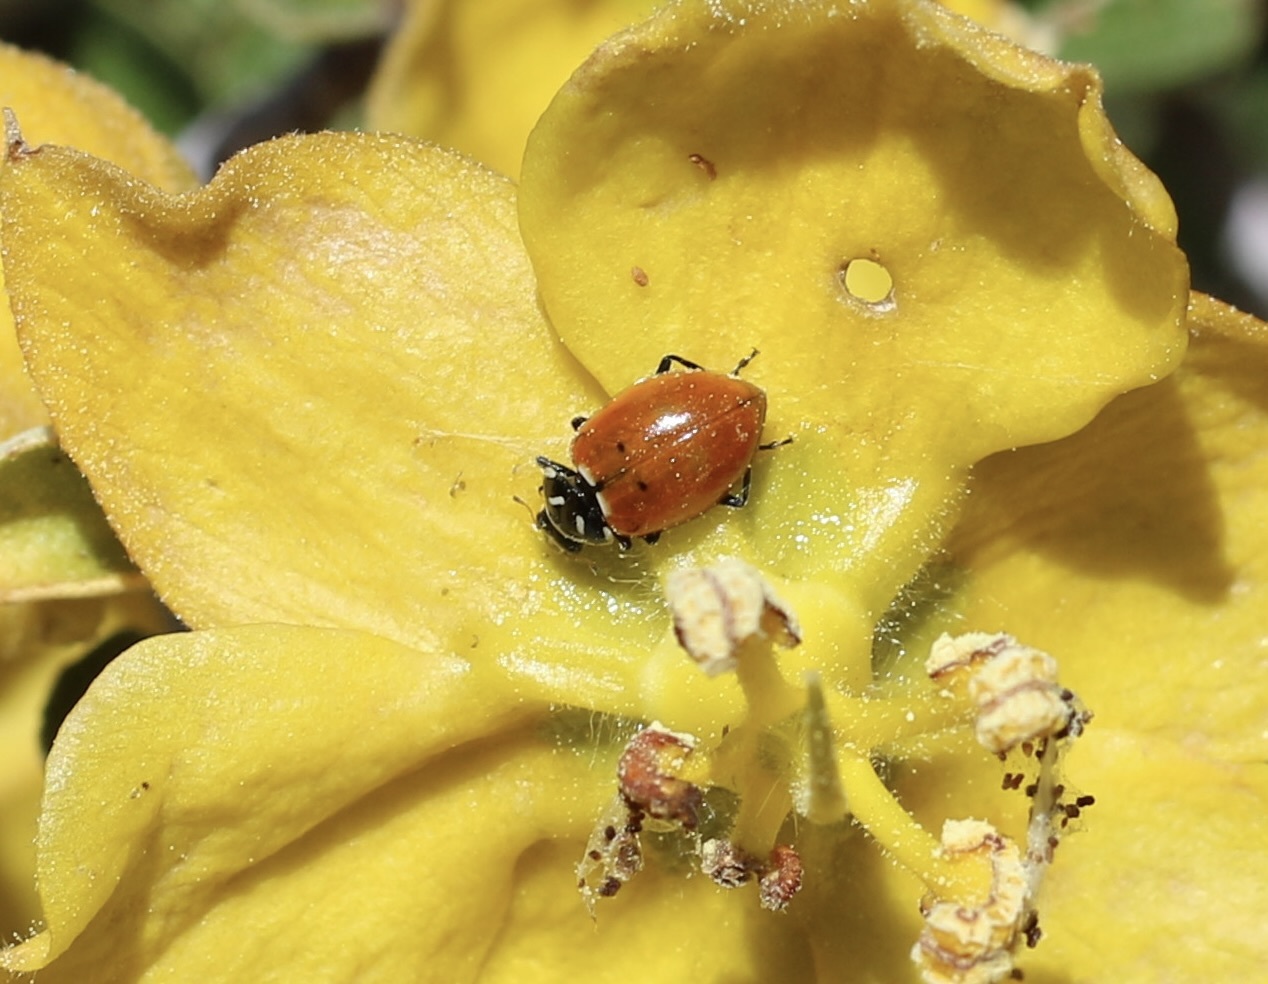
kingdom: Animalia
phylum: Arthropoda
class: Insecta
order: Coleoptera
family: Coccinellidae
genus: Hippodamia
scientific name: Hippodamia convergens
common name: Convergent lady beetle
